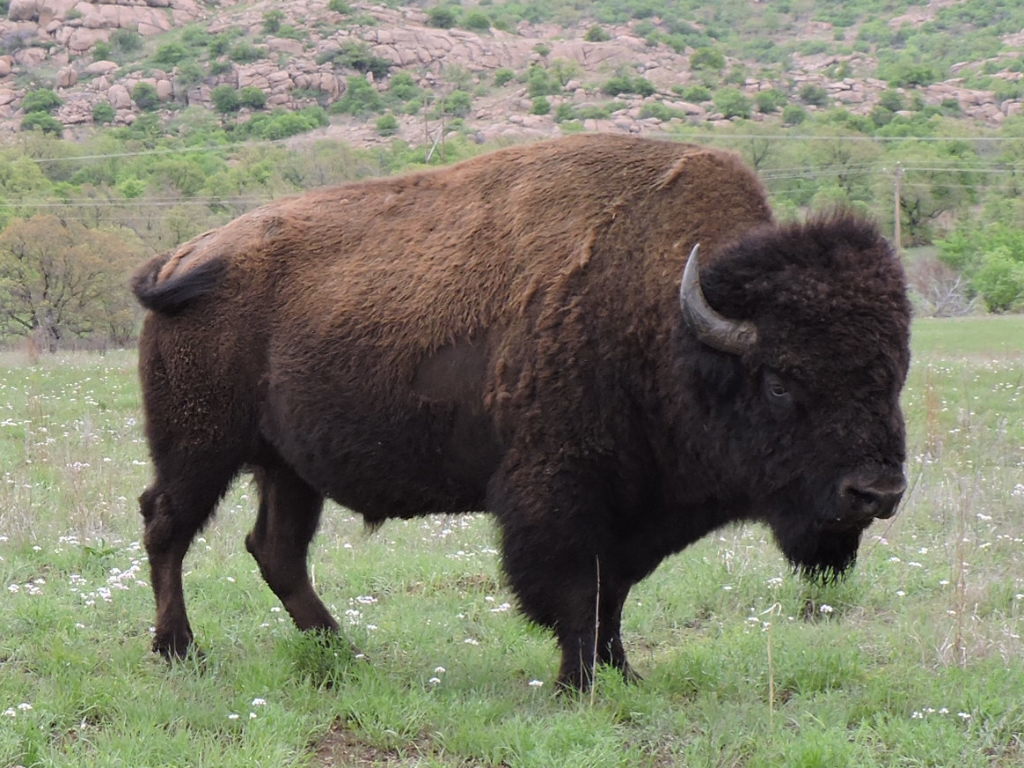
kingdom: Animalia
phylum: Chordata
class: Mammalia
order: Artiodactyla
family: Bovidae
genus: Bison
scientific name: Bison bison
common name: American bison
